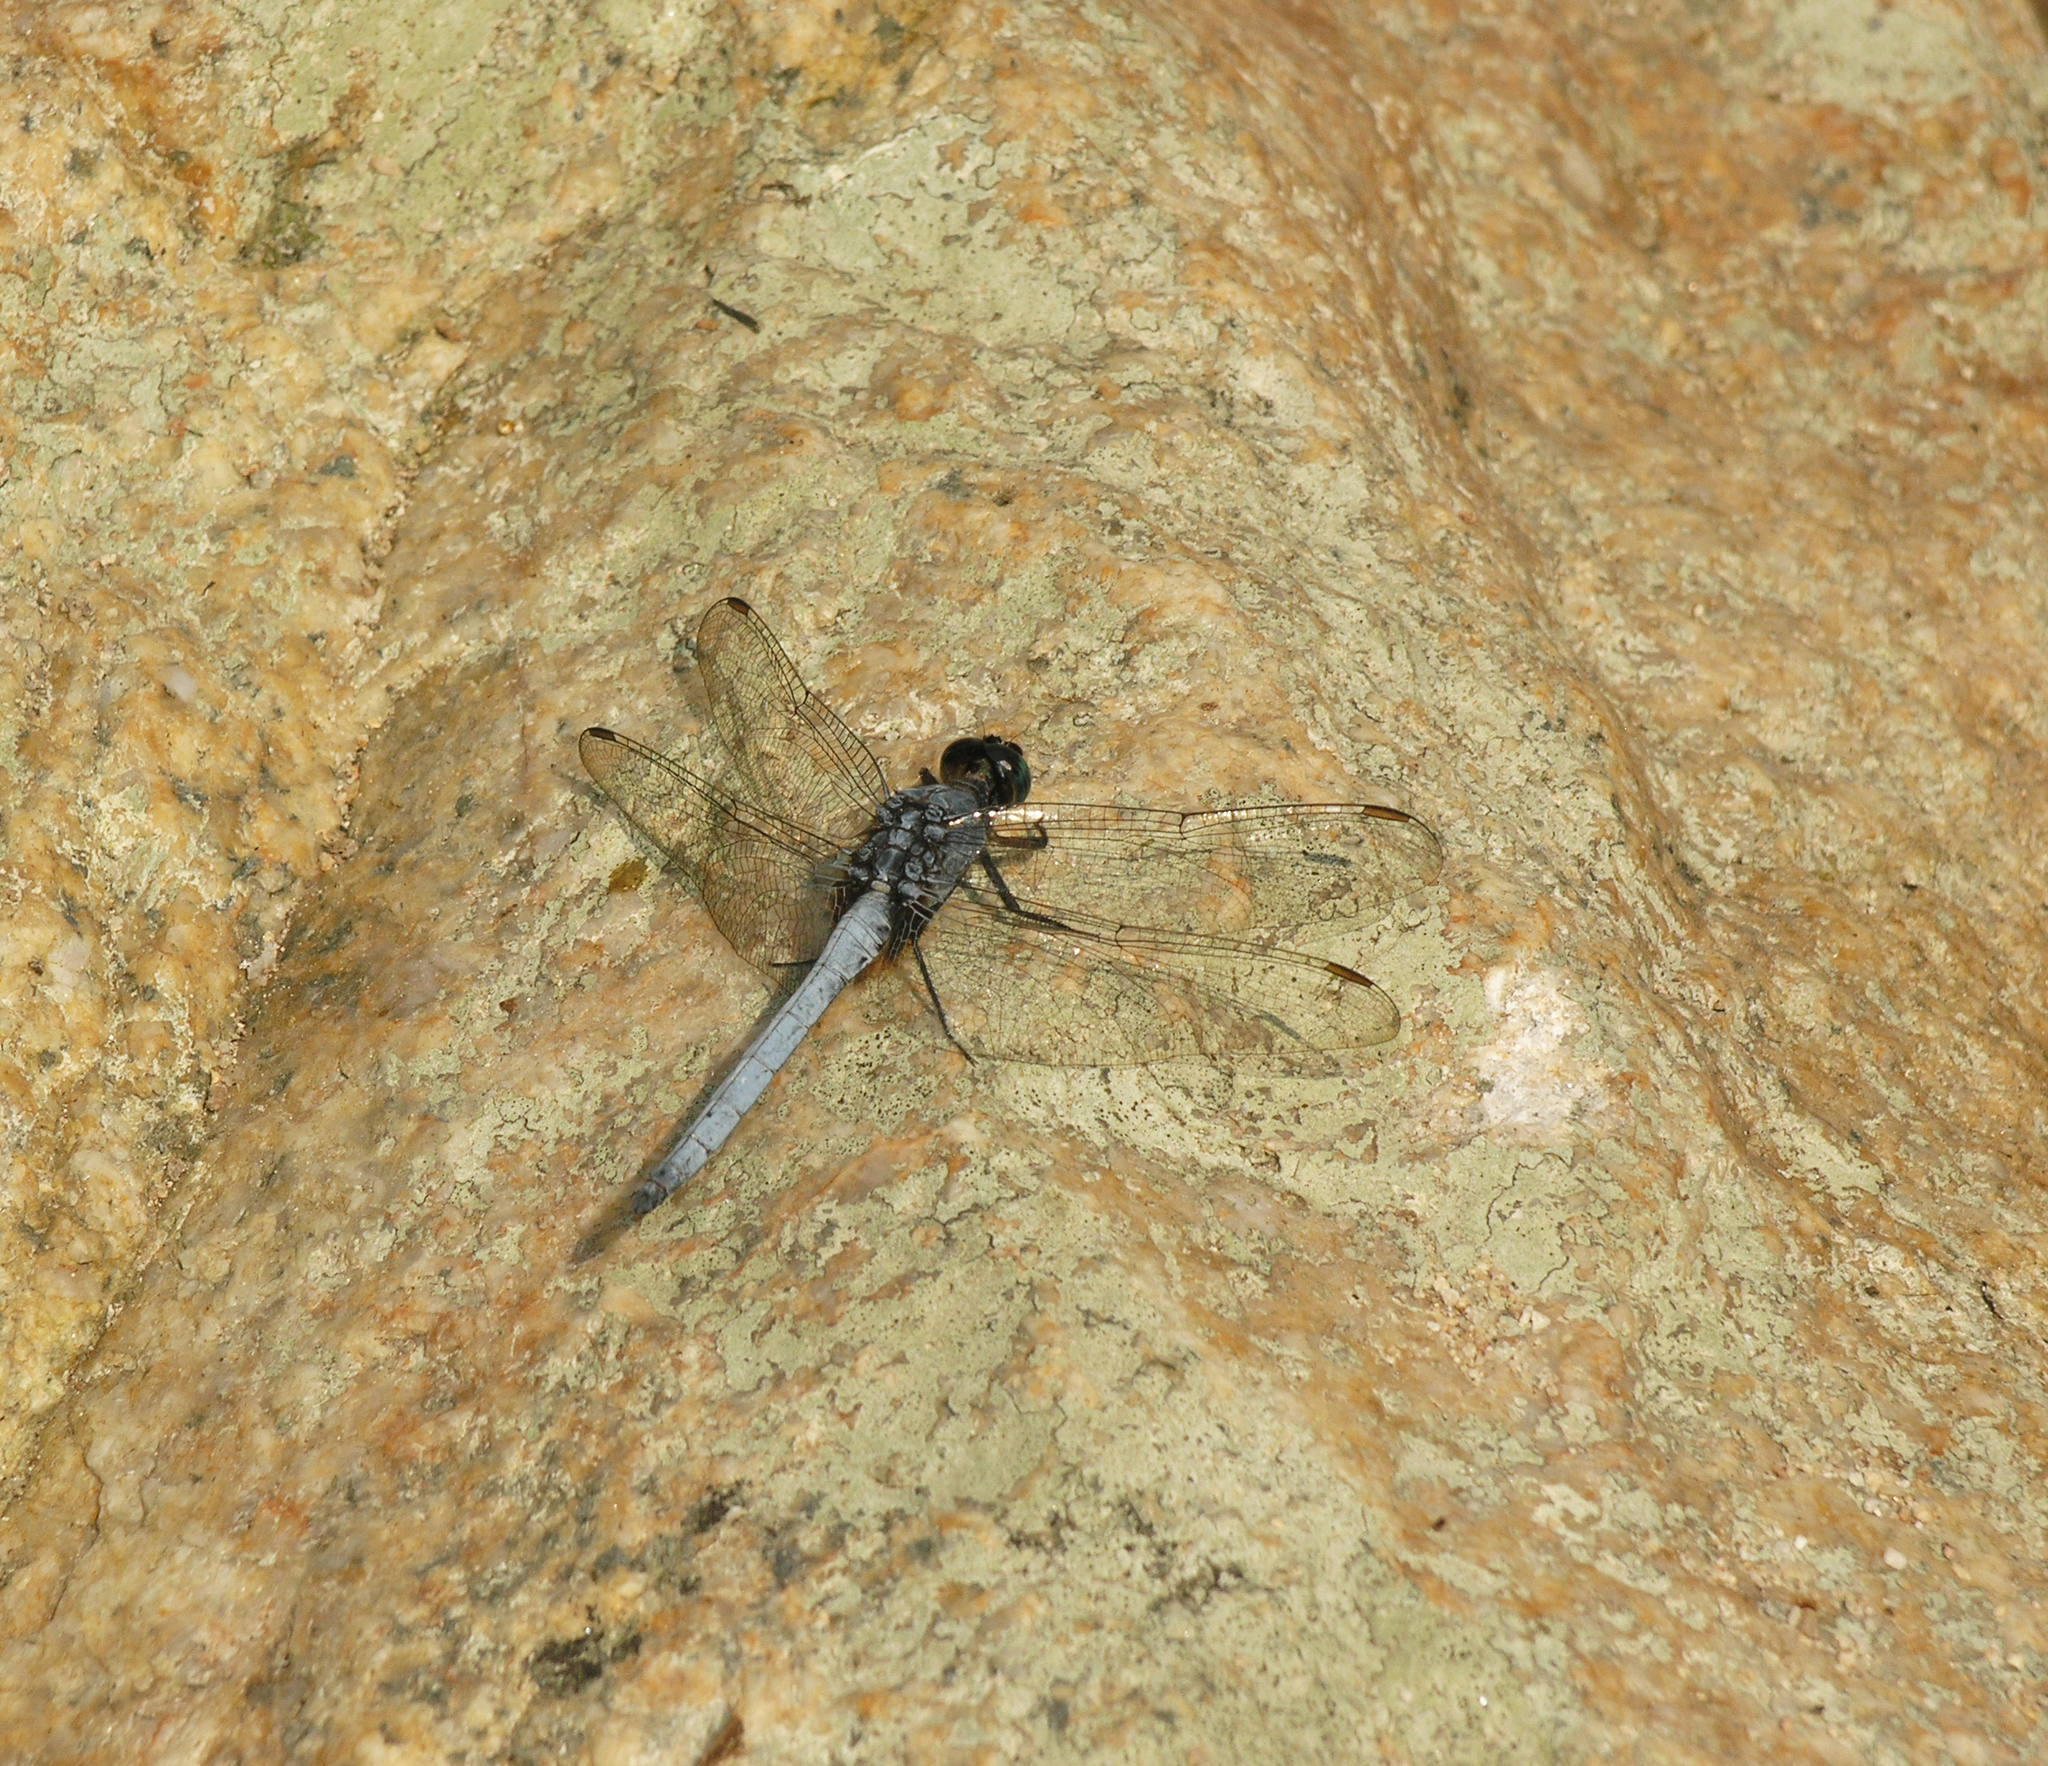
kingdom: Animalia
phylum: Arthropoda
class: Insecta
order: Odonata
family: Libellulidae
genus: Orthetrum
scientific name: Orthetrum glaucum
